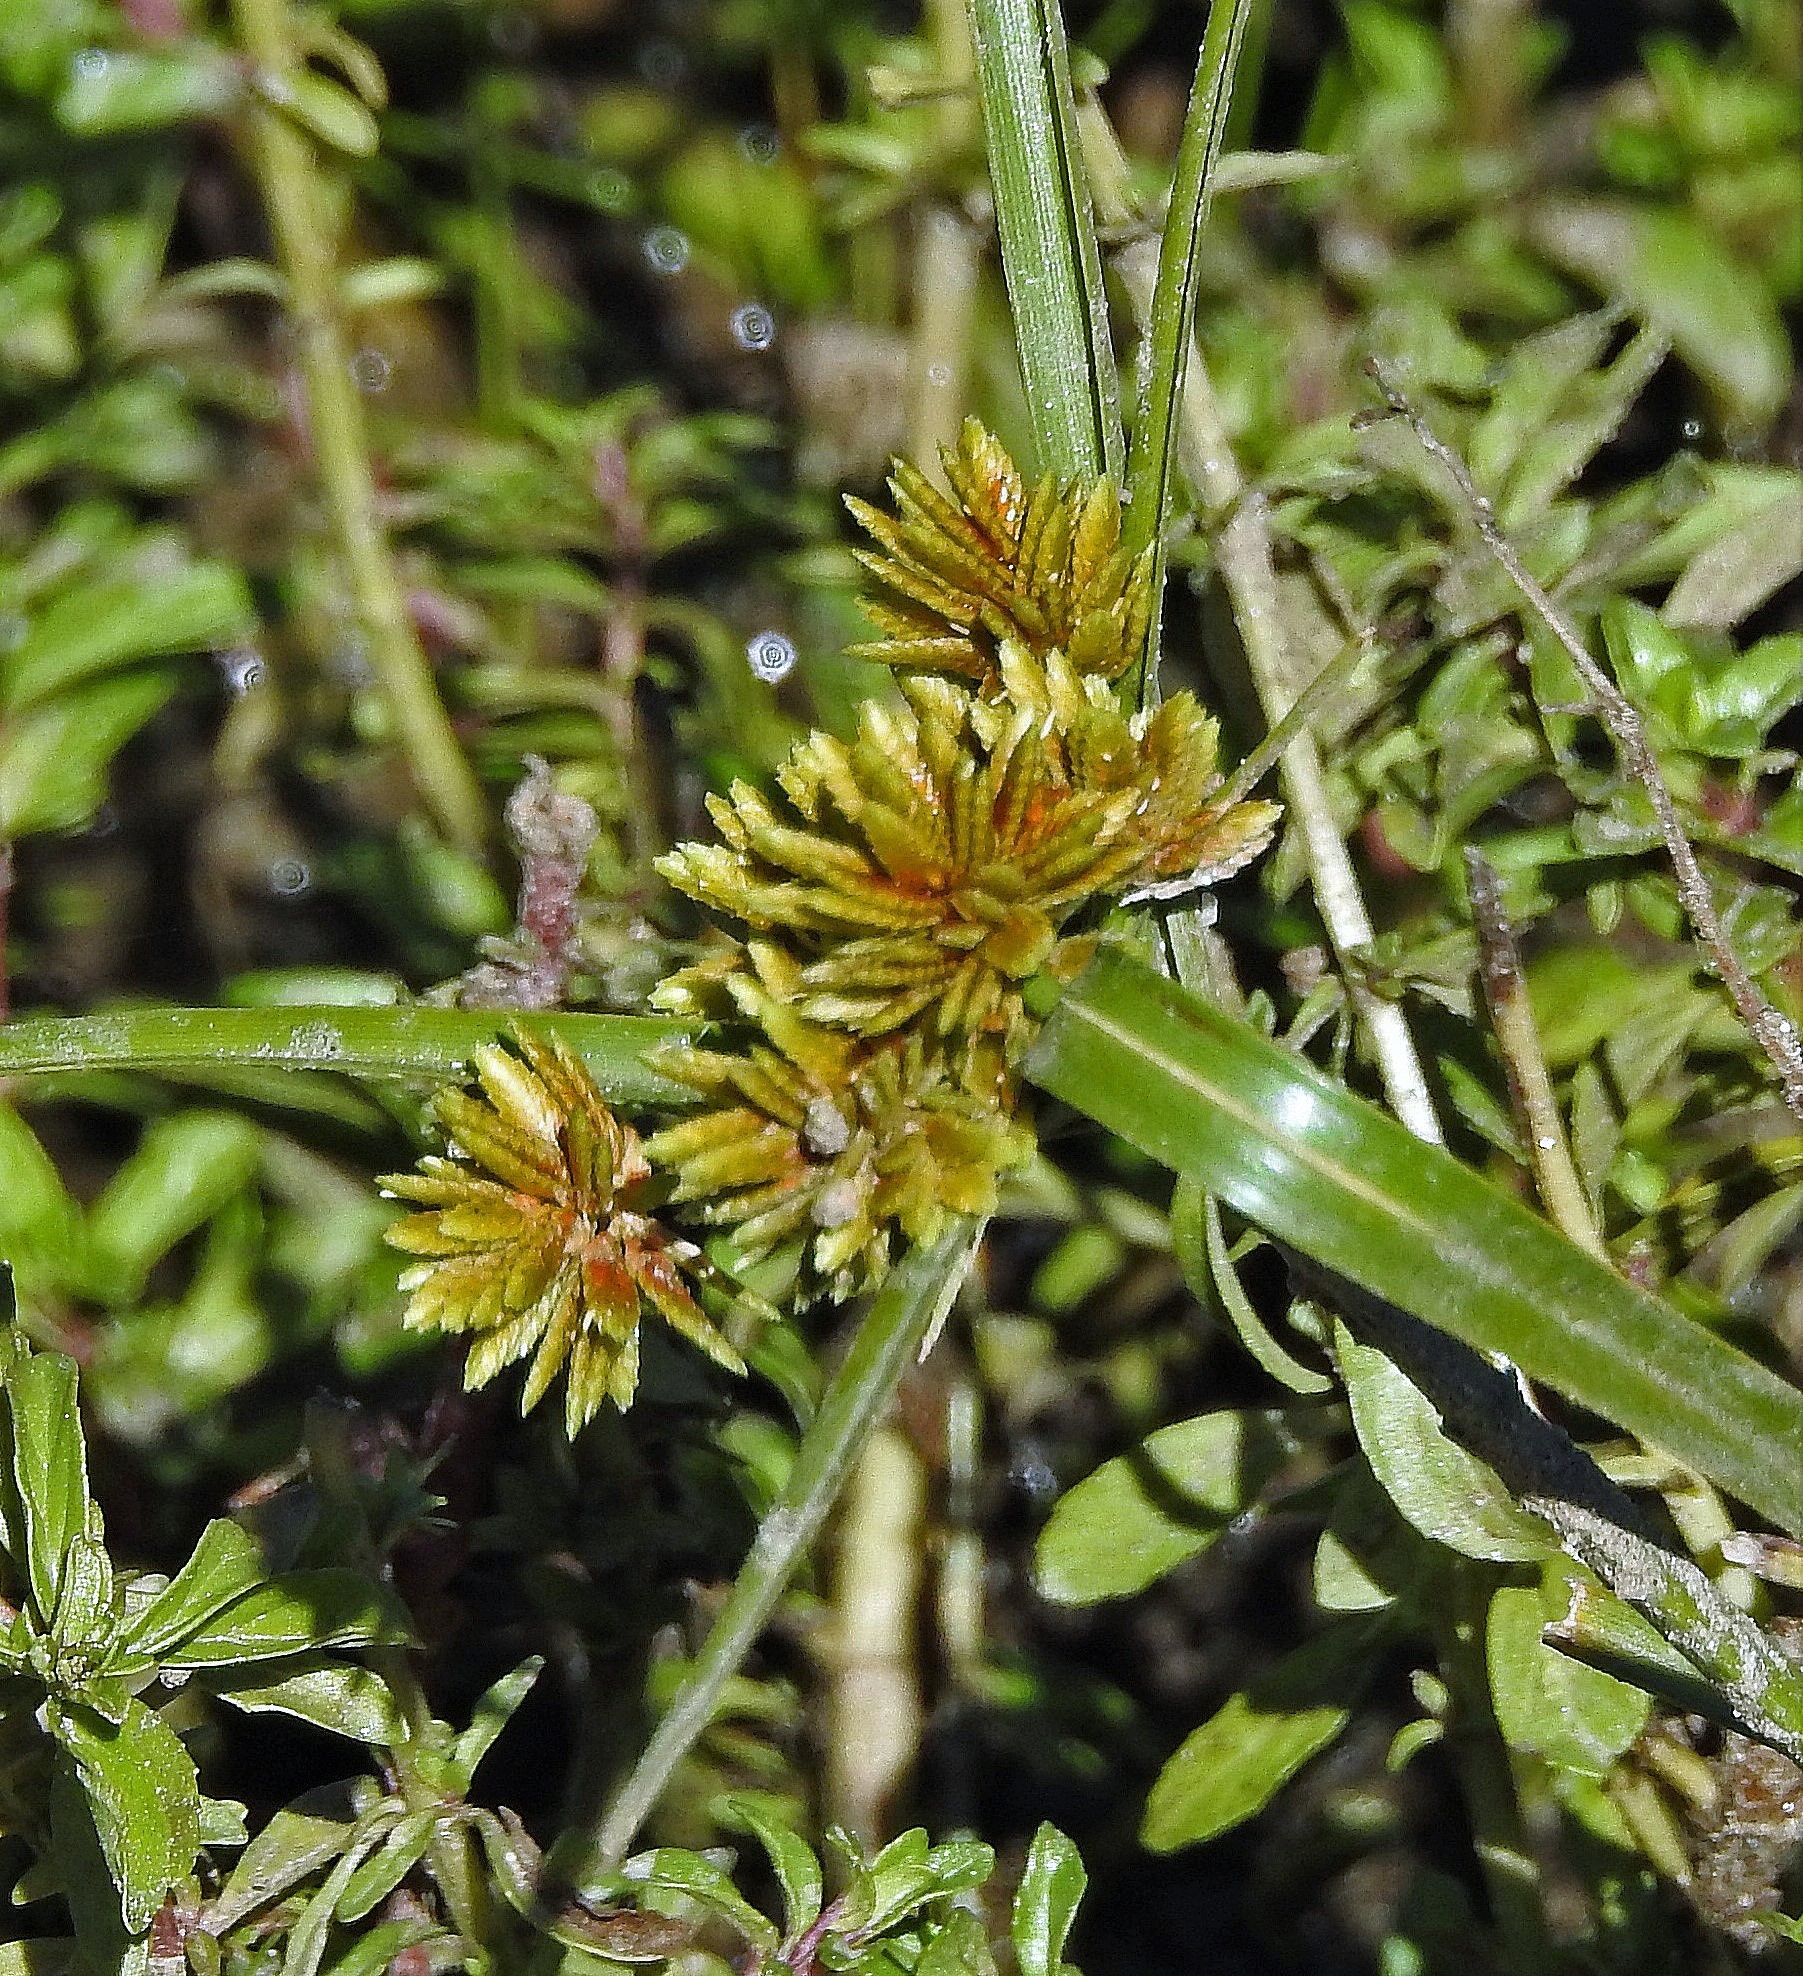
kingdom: Plantae
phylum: Tracheophyta
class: Liliopsida
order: Poales
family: Cyperaceae
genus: Cyperus
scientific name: Cyperus eragrostis
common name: Tall flatsedge
